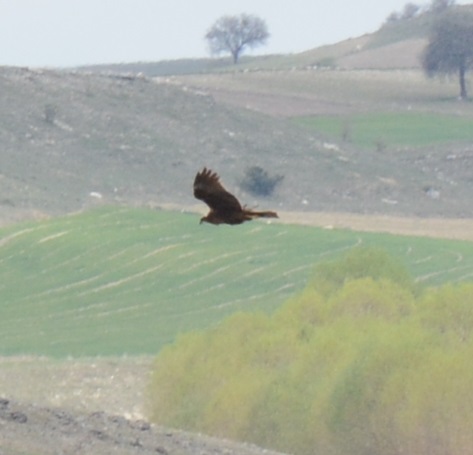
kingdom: Animalia
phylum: Chordata
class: Aves
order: Accipitriformes
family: Accipitridae
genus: Circus
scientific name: Circus aeruginosus
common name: Western marsh harrier
